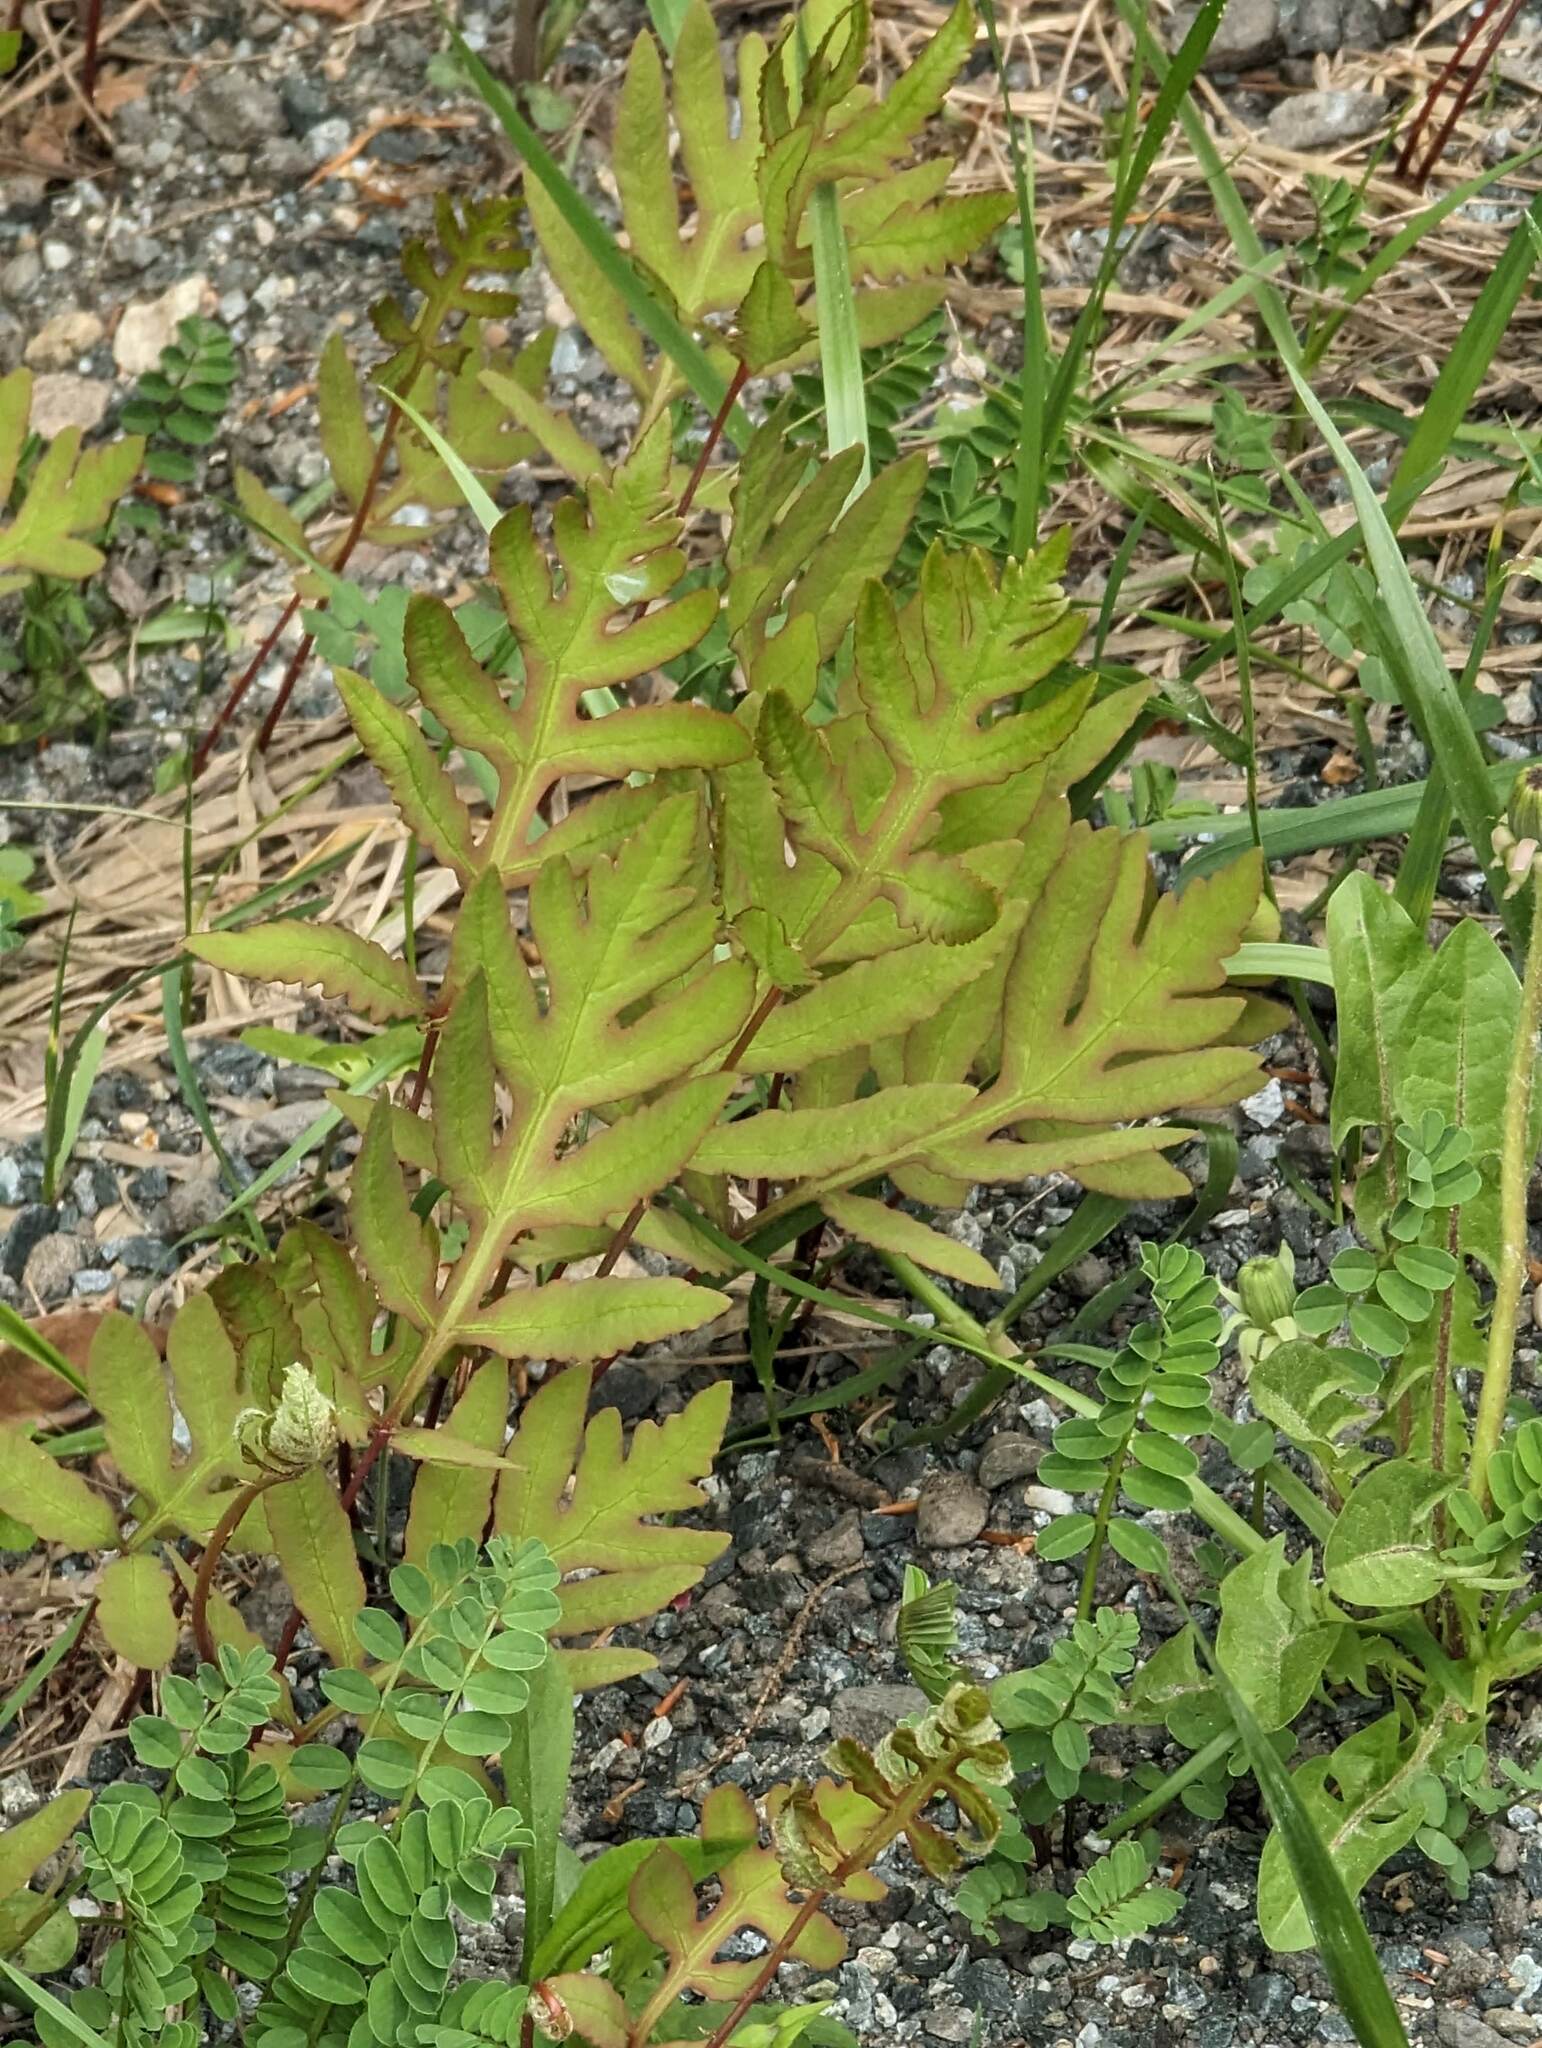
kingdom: Plantae
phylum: Tracheophyta
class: Polypodiopsida
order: Polypodiales
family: Onocleaceae
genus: Onoclea
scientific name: Onoclea sensibilis
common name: Sensitive fern
